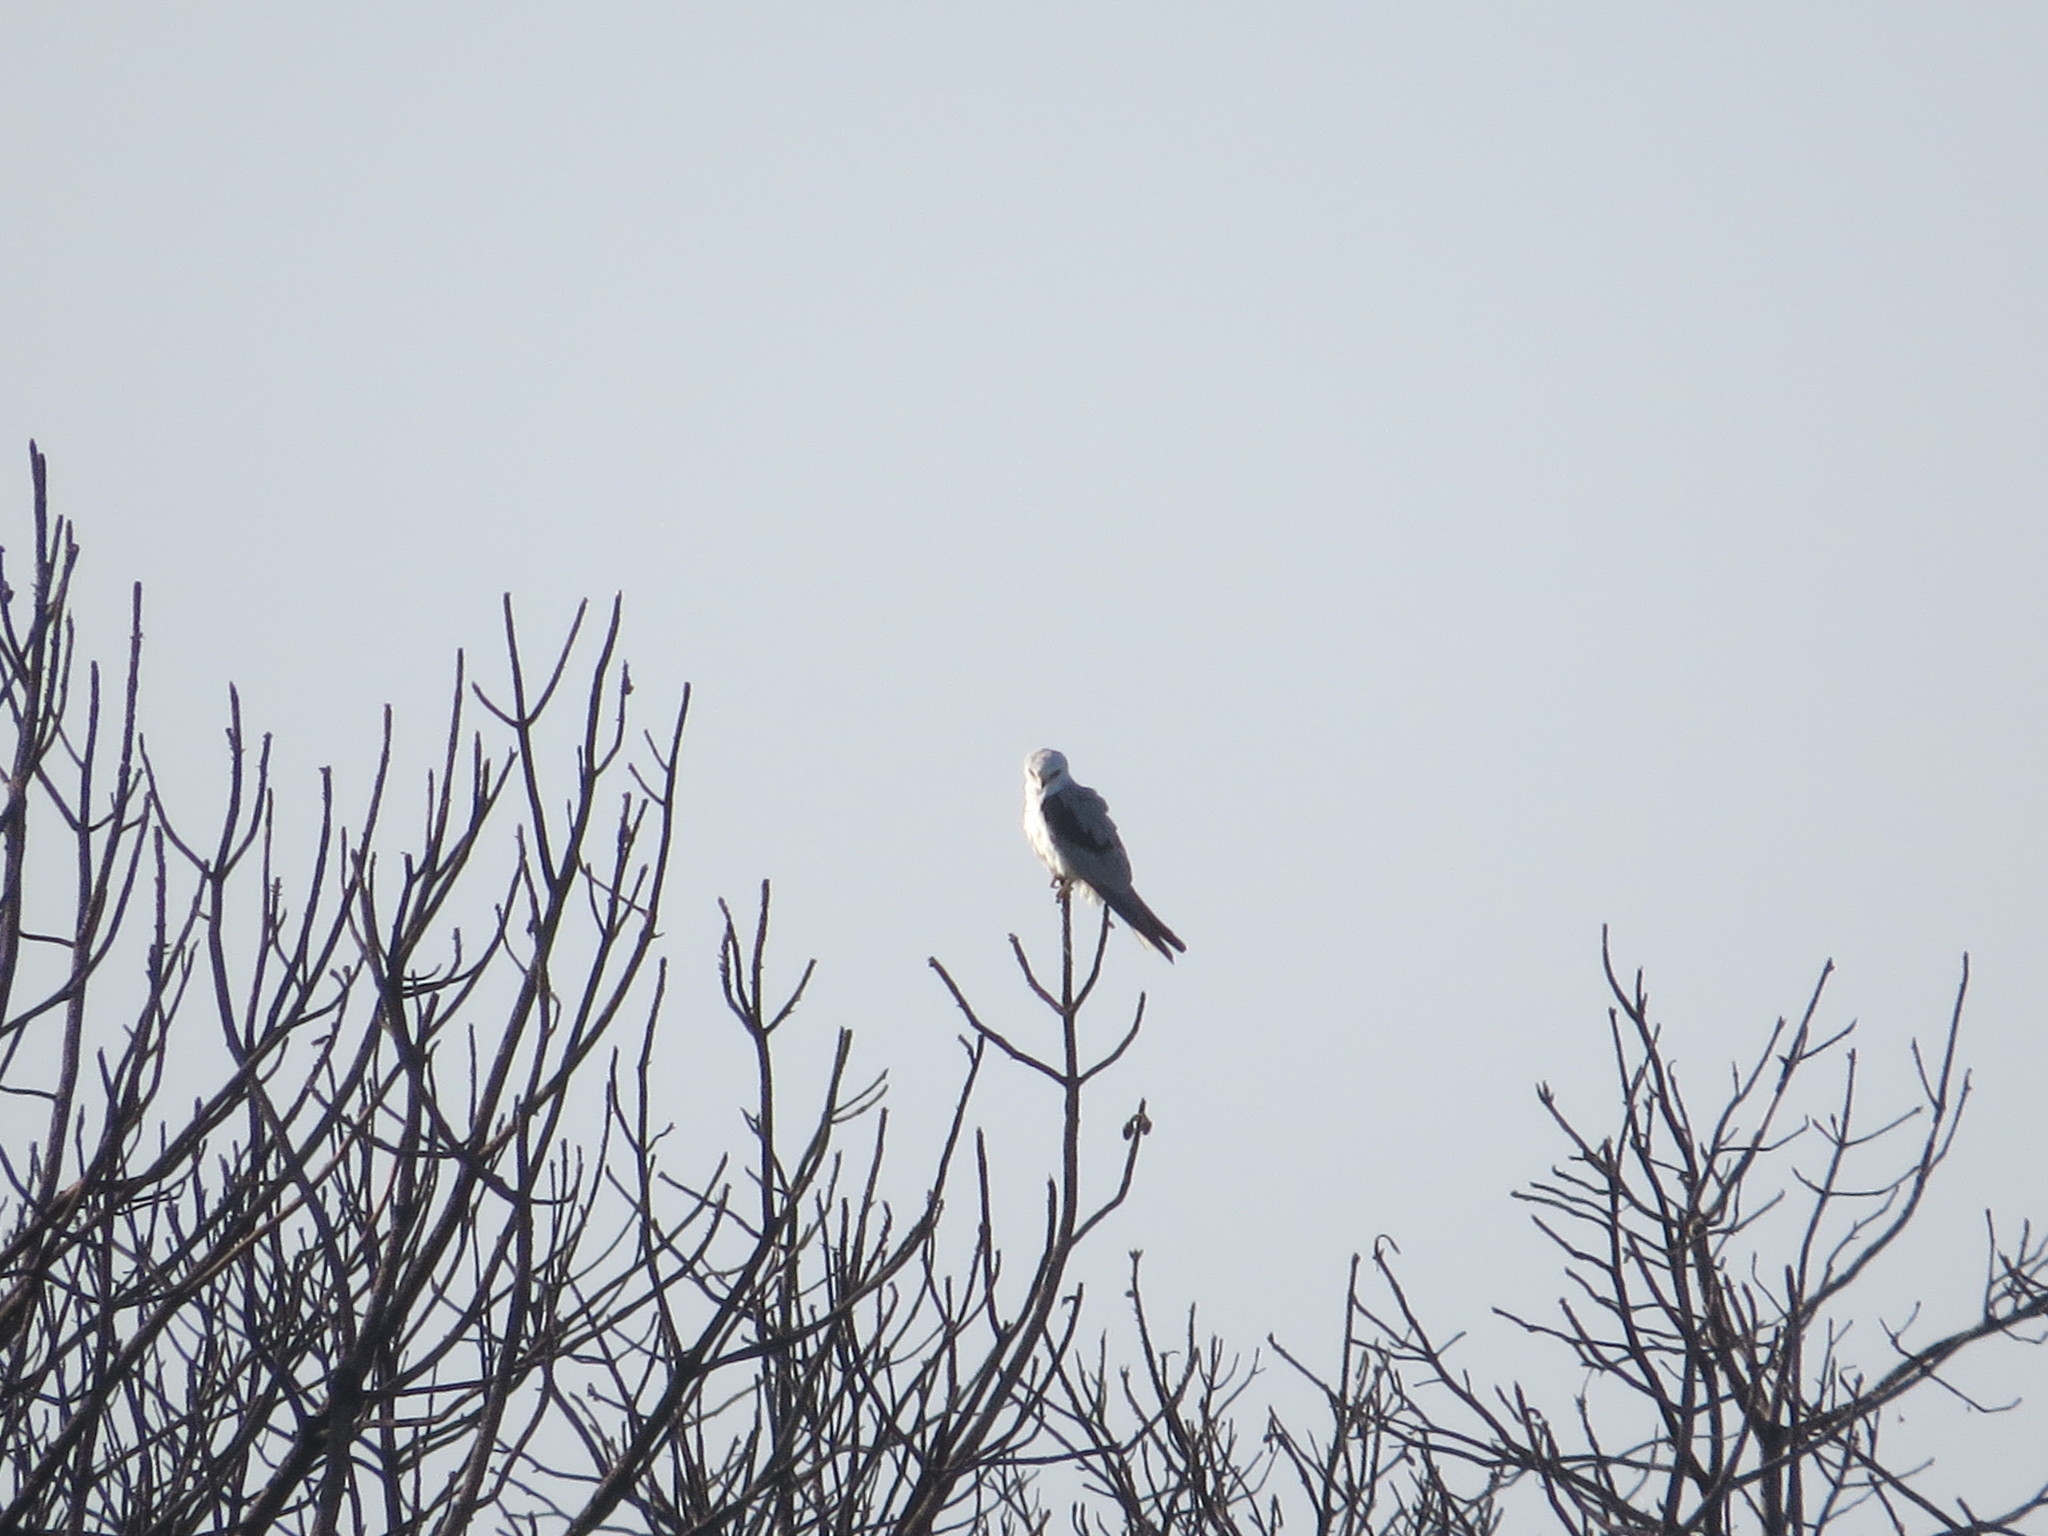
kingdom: Animalia
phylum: Chordata
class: Aves
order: Accipitriformes
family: Accipitridae
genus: Elanus
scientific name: Elanus leucurus
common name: White-tailed kite
